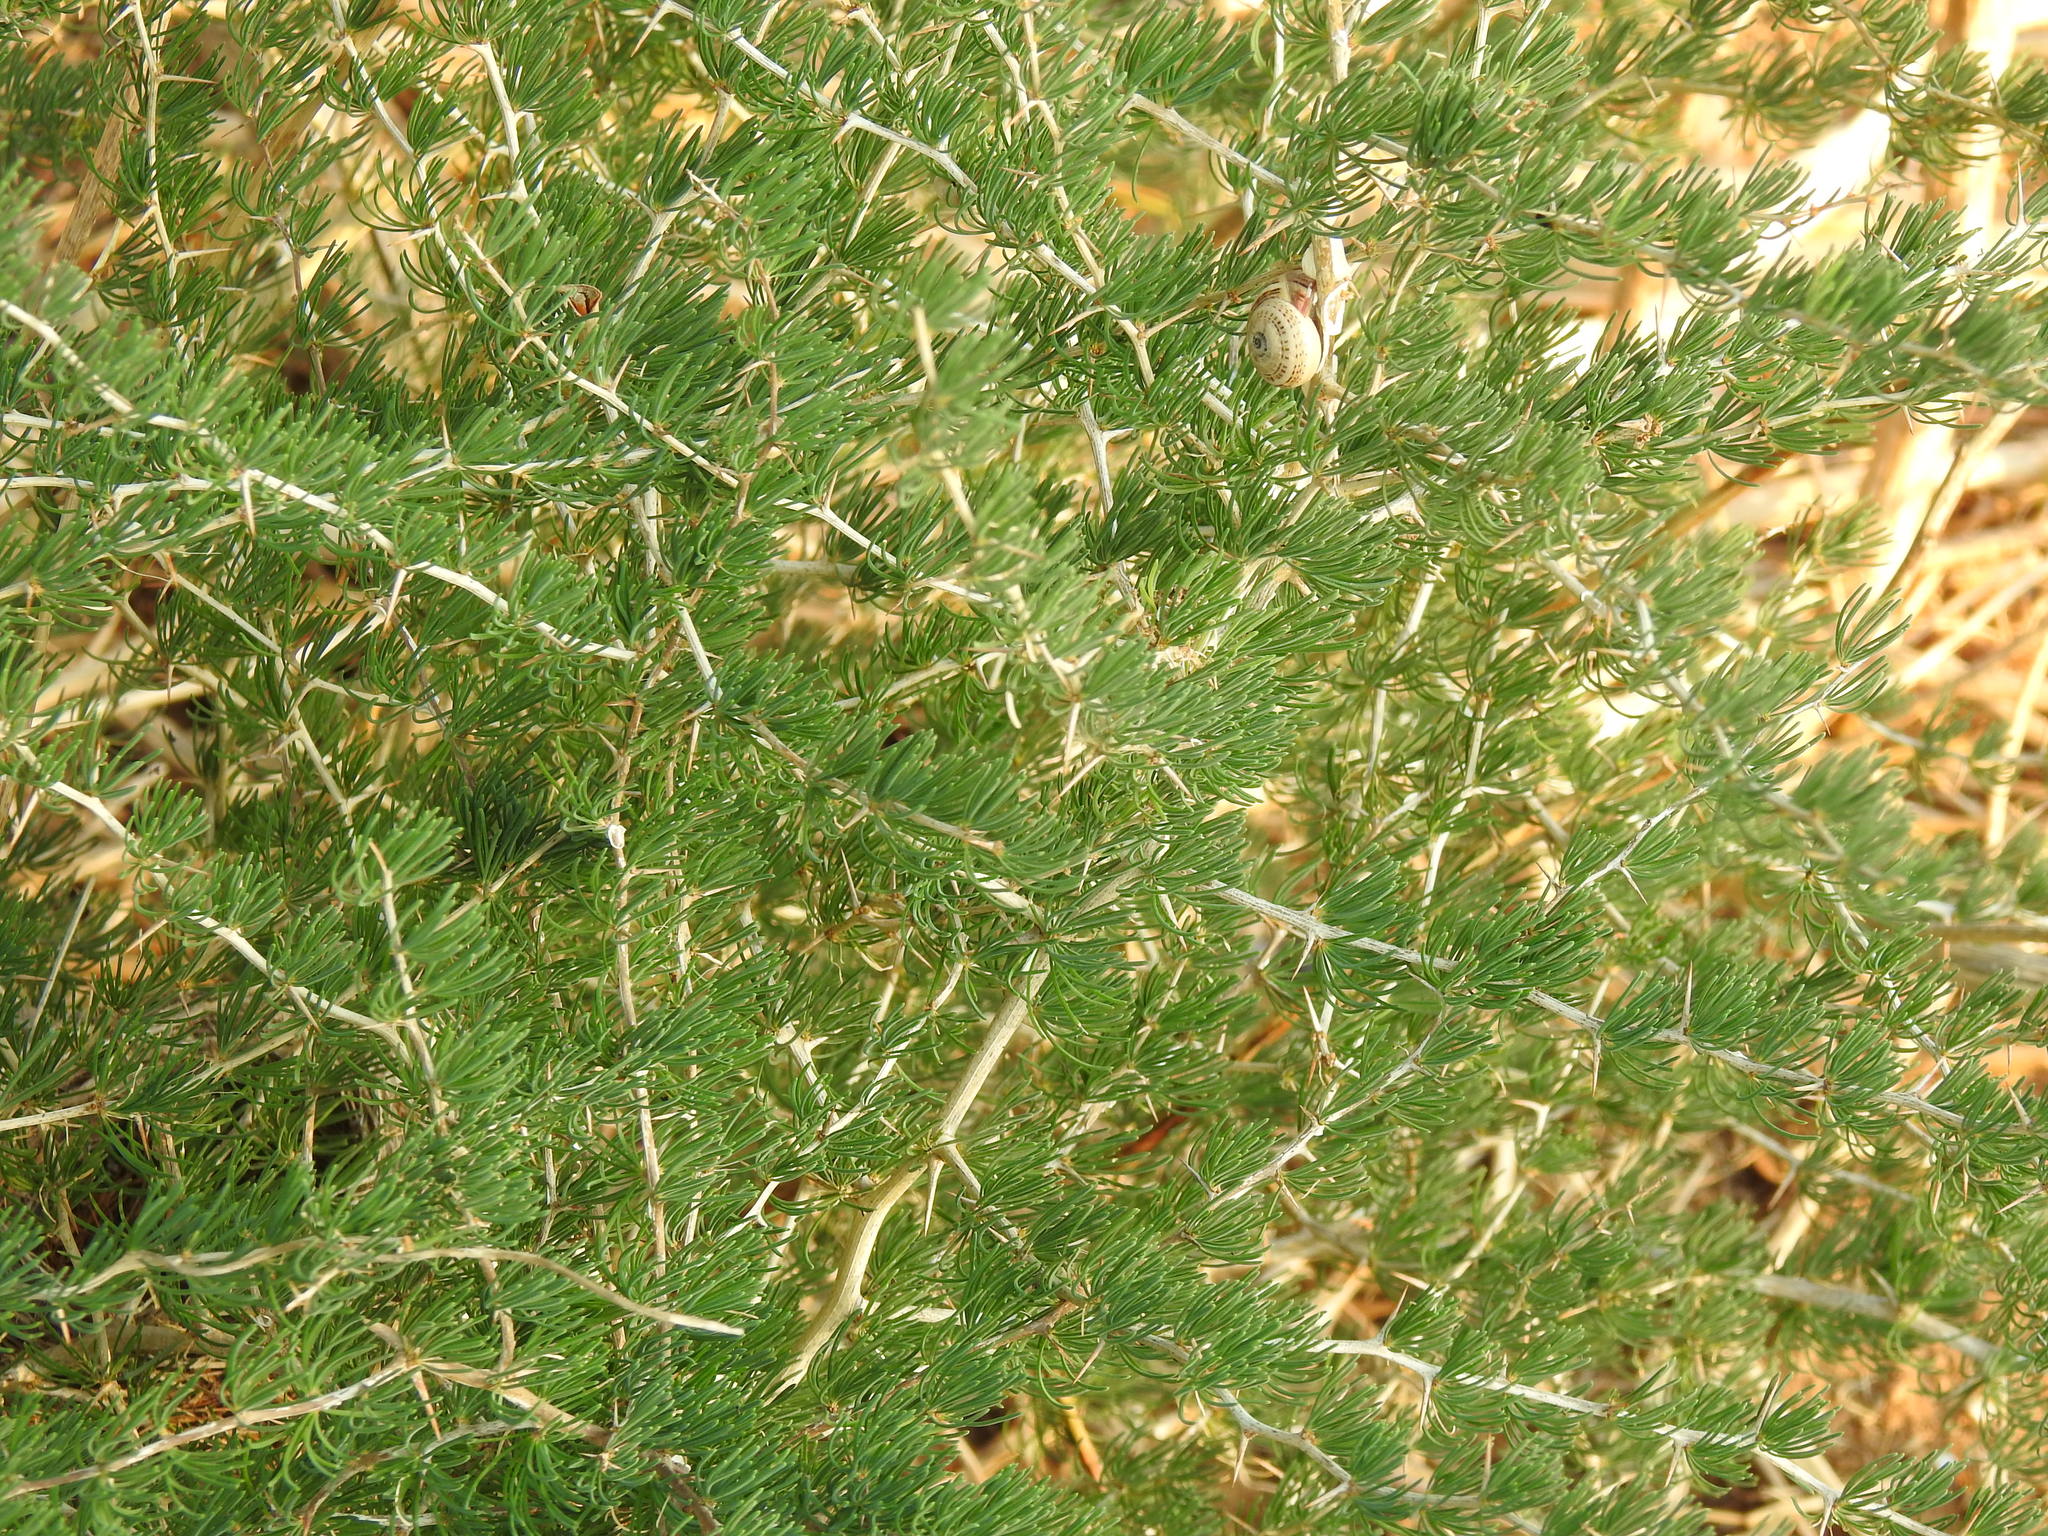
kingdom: Plantae
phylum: Tracheophyta
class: Liliopsida
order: Asparagales
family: Asparagaceae
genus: Asparagus
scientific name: Asparagus albus
